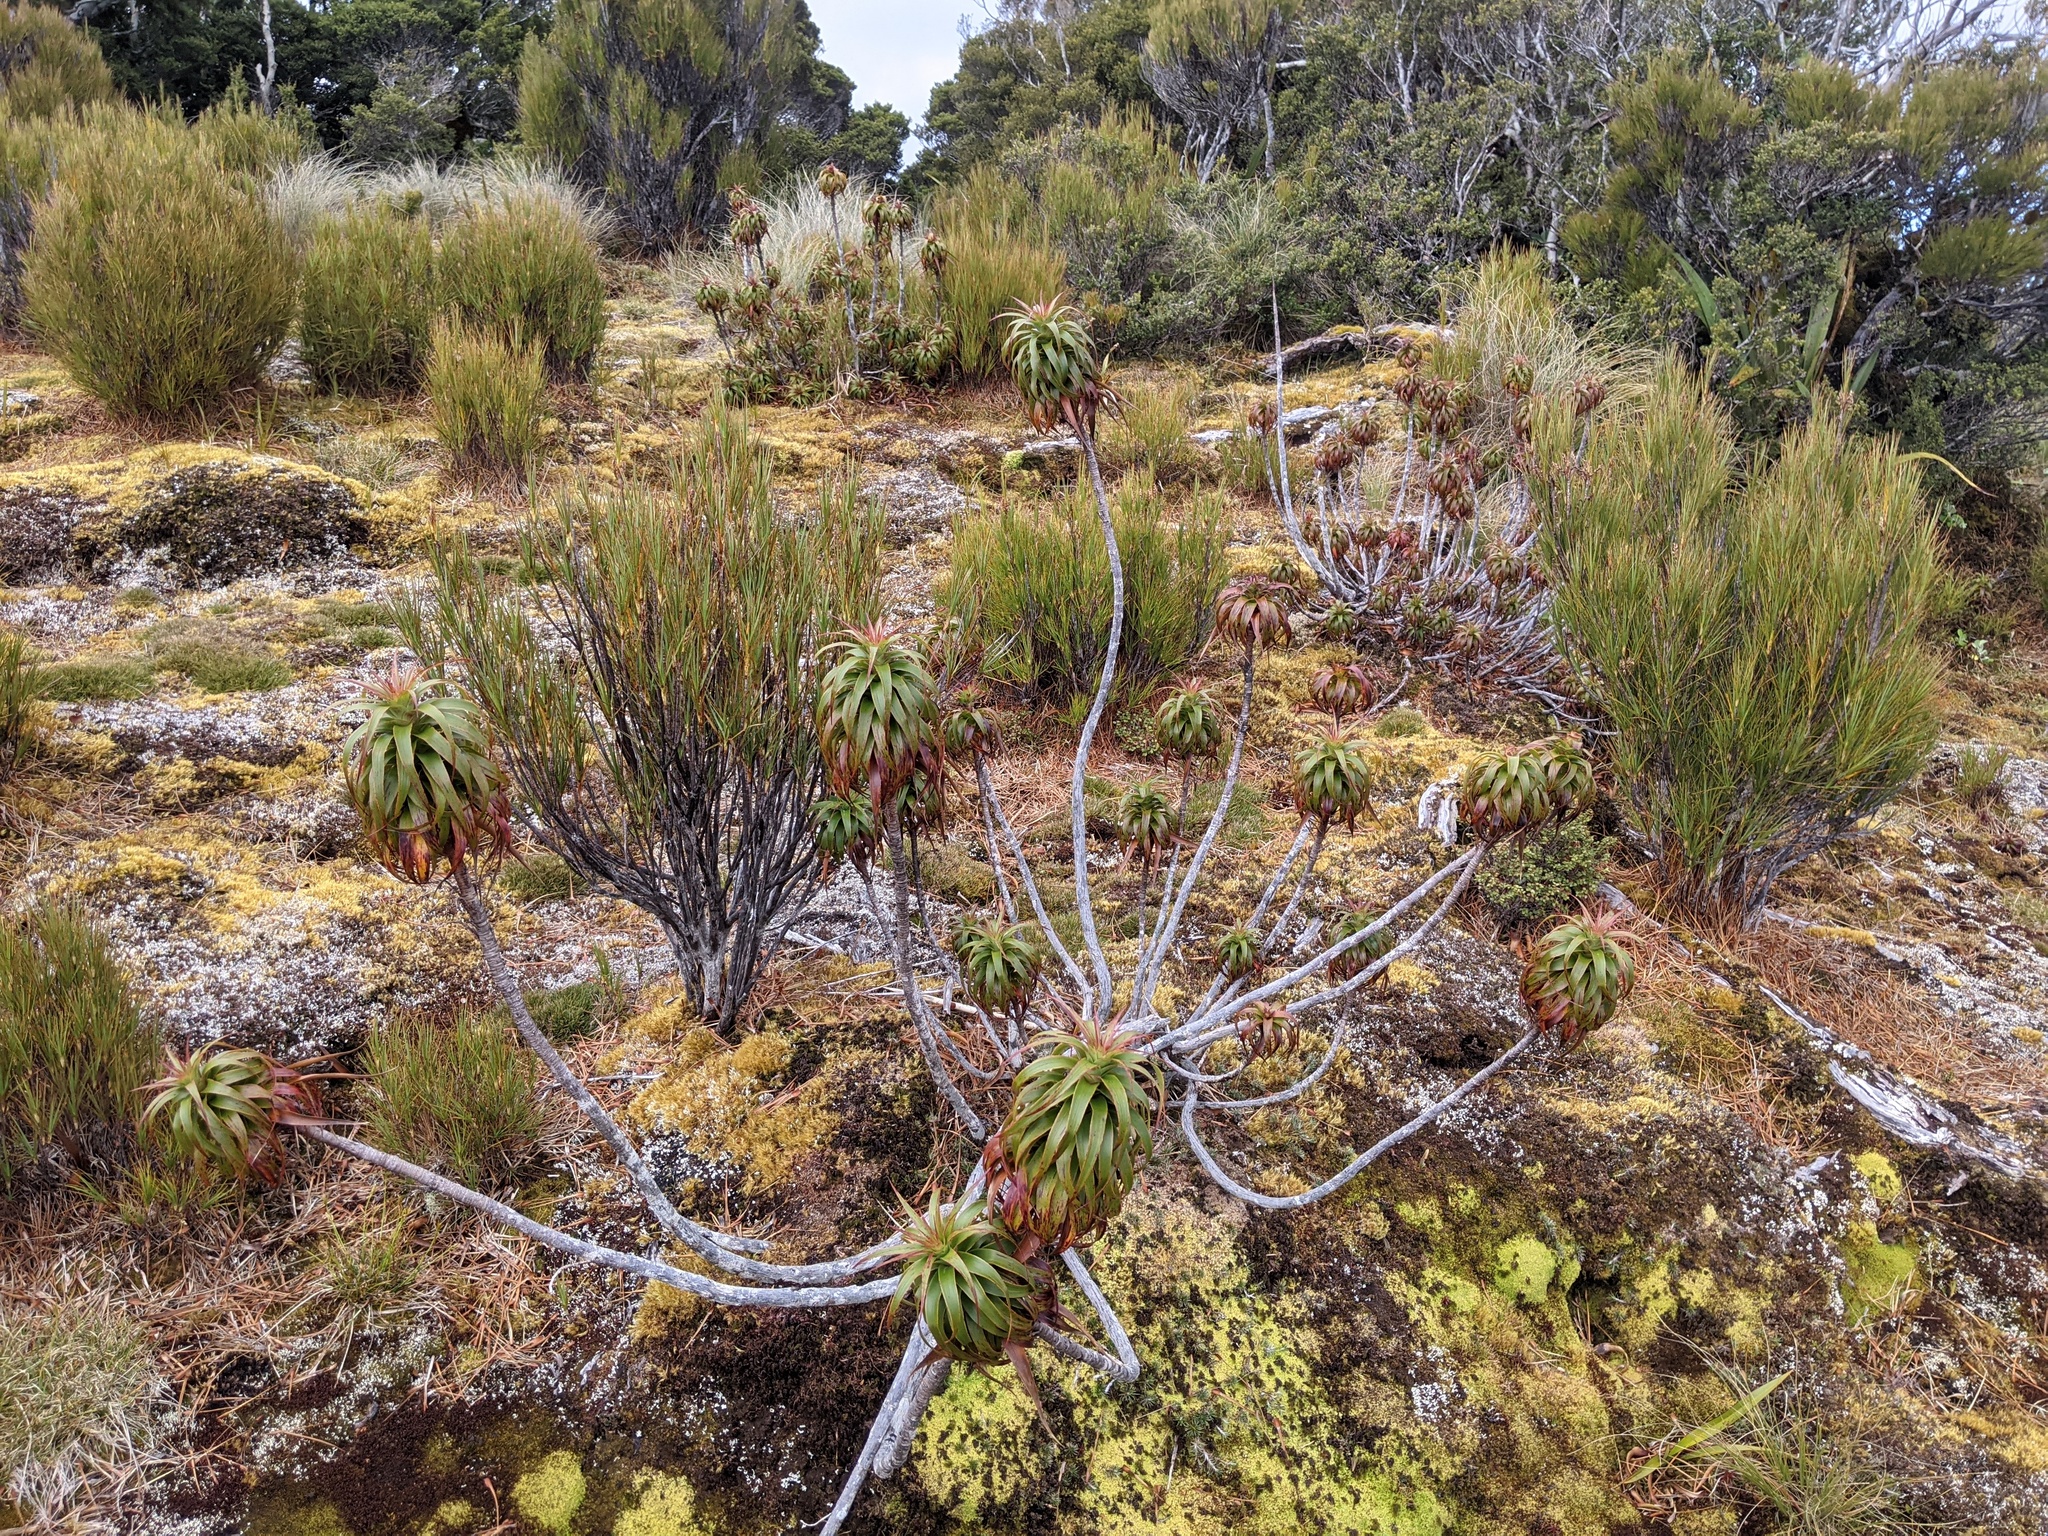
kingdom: Plantae
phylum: Tracheophyta
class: Magnoliopsida
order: Ericales
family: Ericaceae
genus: Dracophyllum
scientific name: Dracophyllum menziesii
